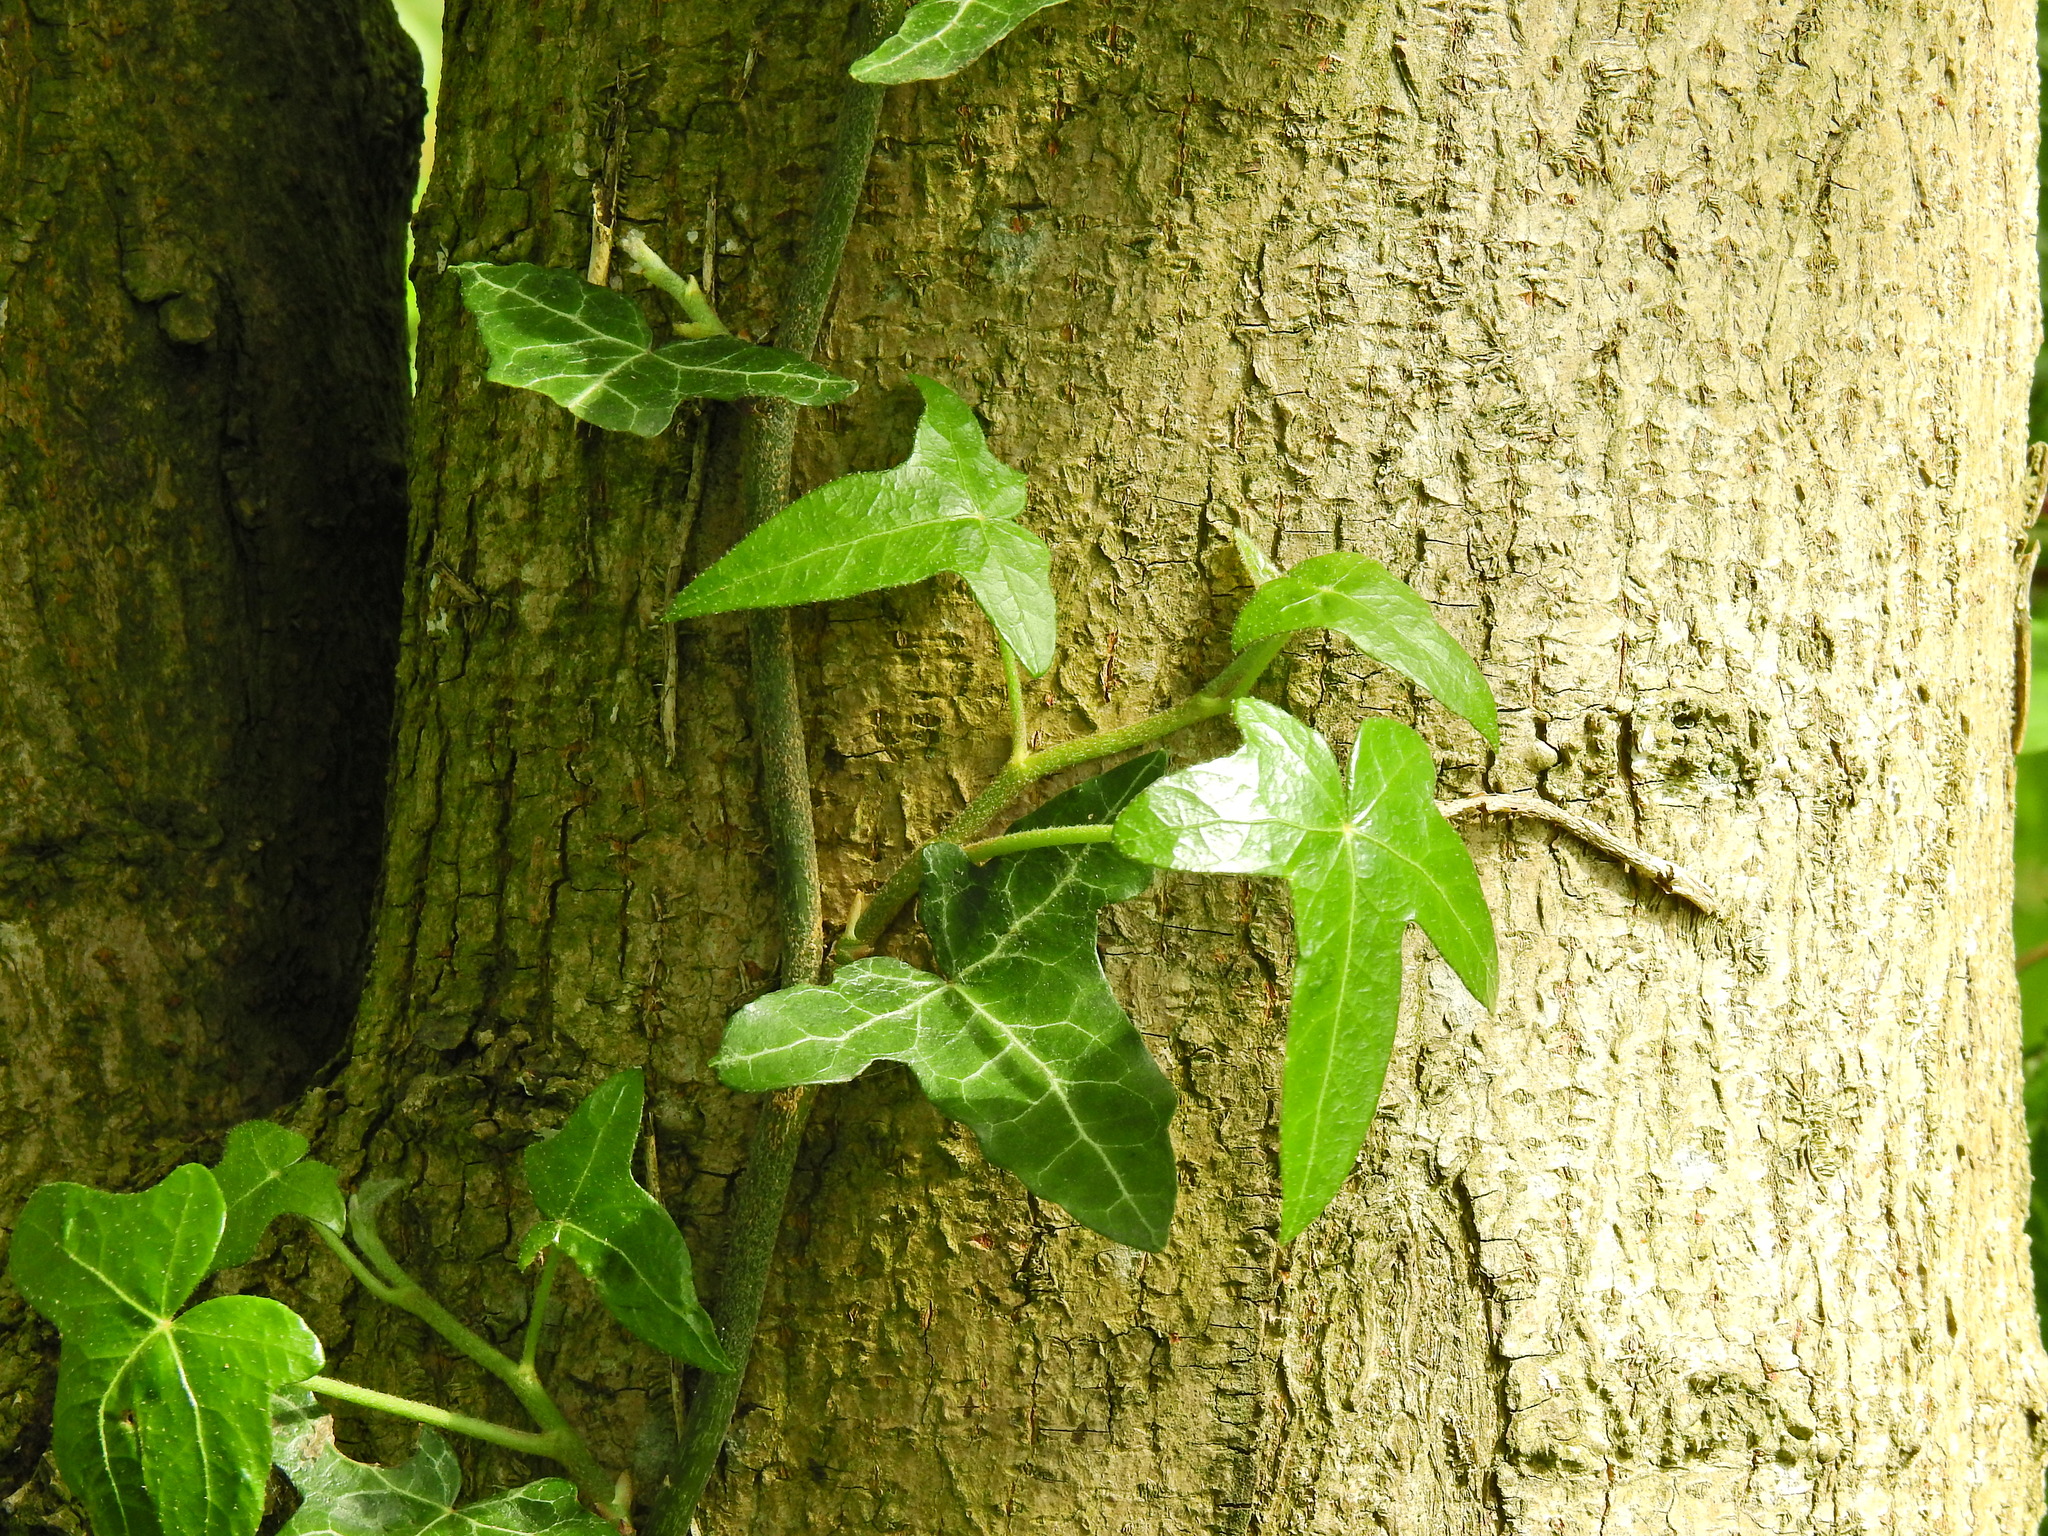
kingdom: Plantae
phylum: Tracheophyta
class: Magnoliopsida
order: Apiales
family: Araliaceae
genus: Hedera
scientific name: Hedera helix
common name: Ivy
